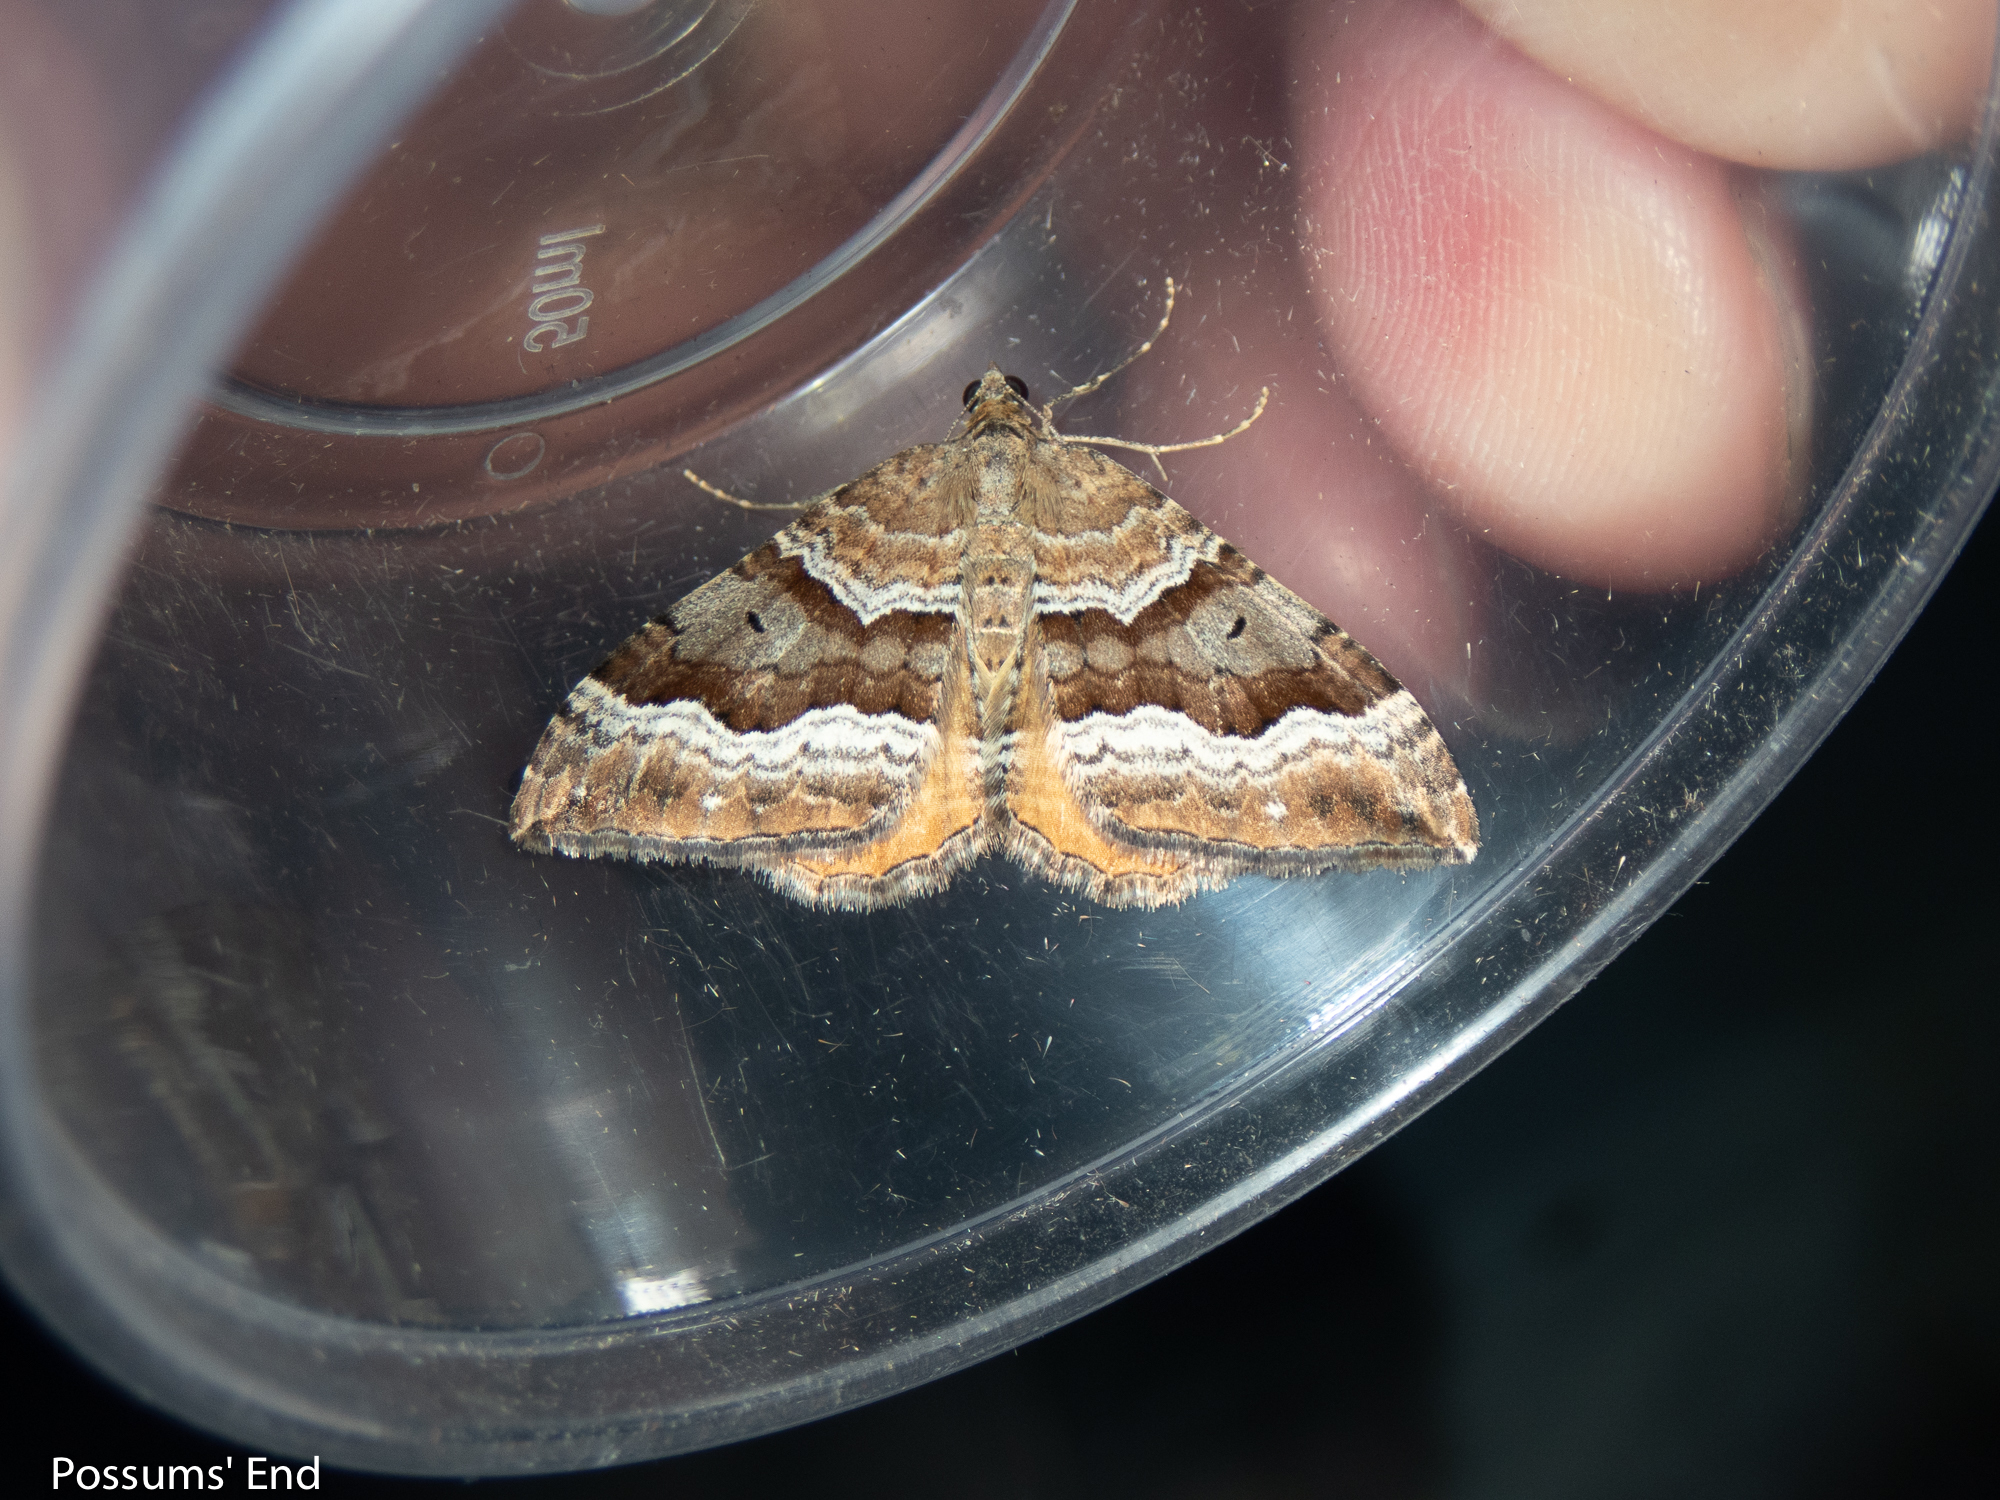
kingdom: Animalia
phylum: Arthropoda
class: Insecta
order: Lepidoptera
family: Geometridae
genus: Hydriomena
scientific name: Hydriomena deltoidata
